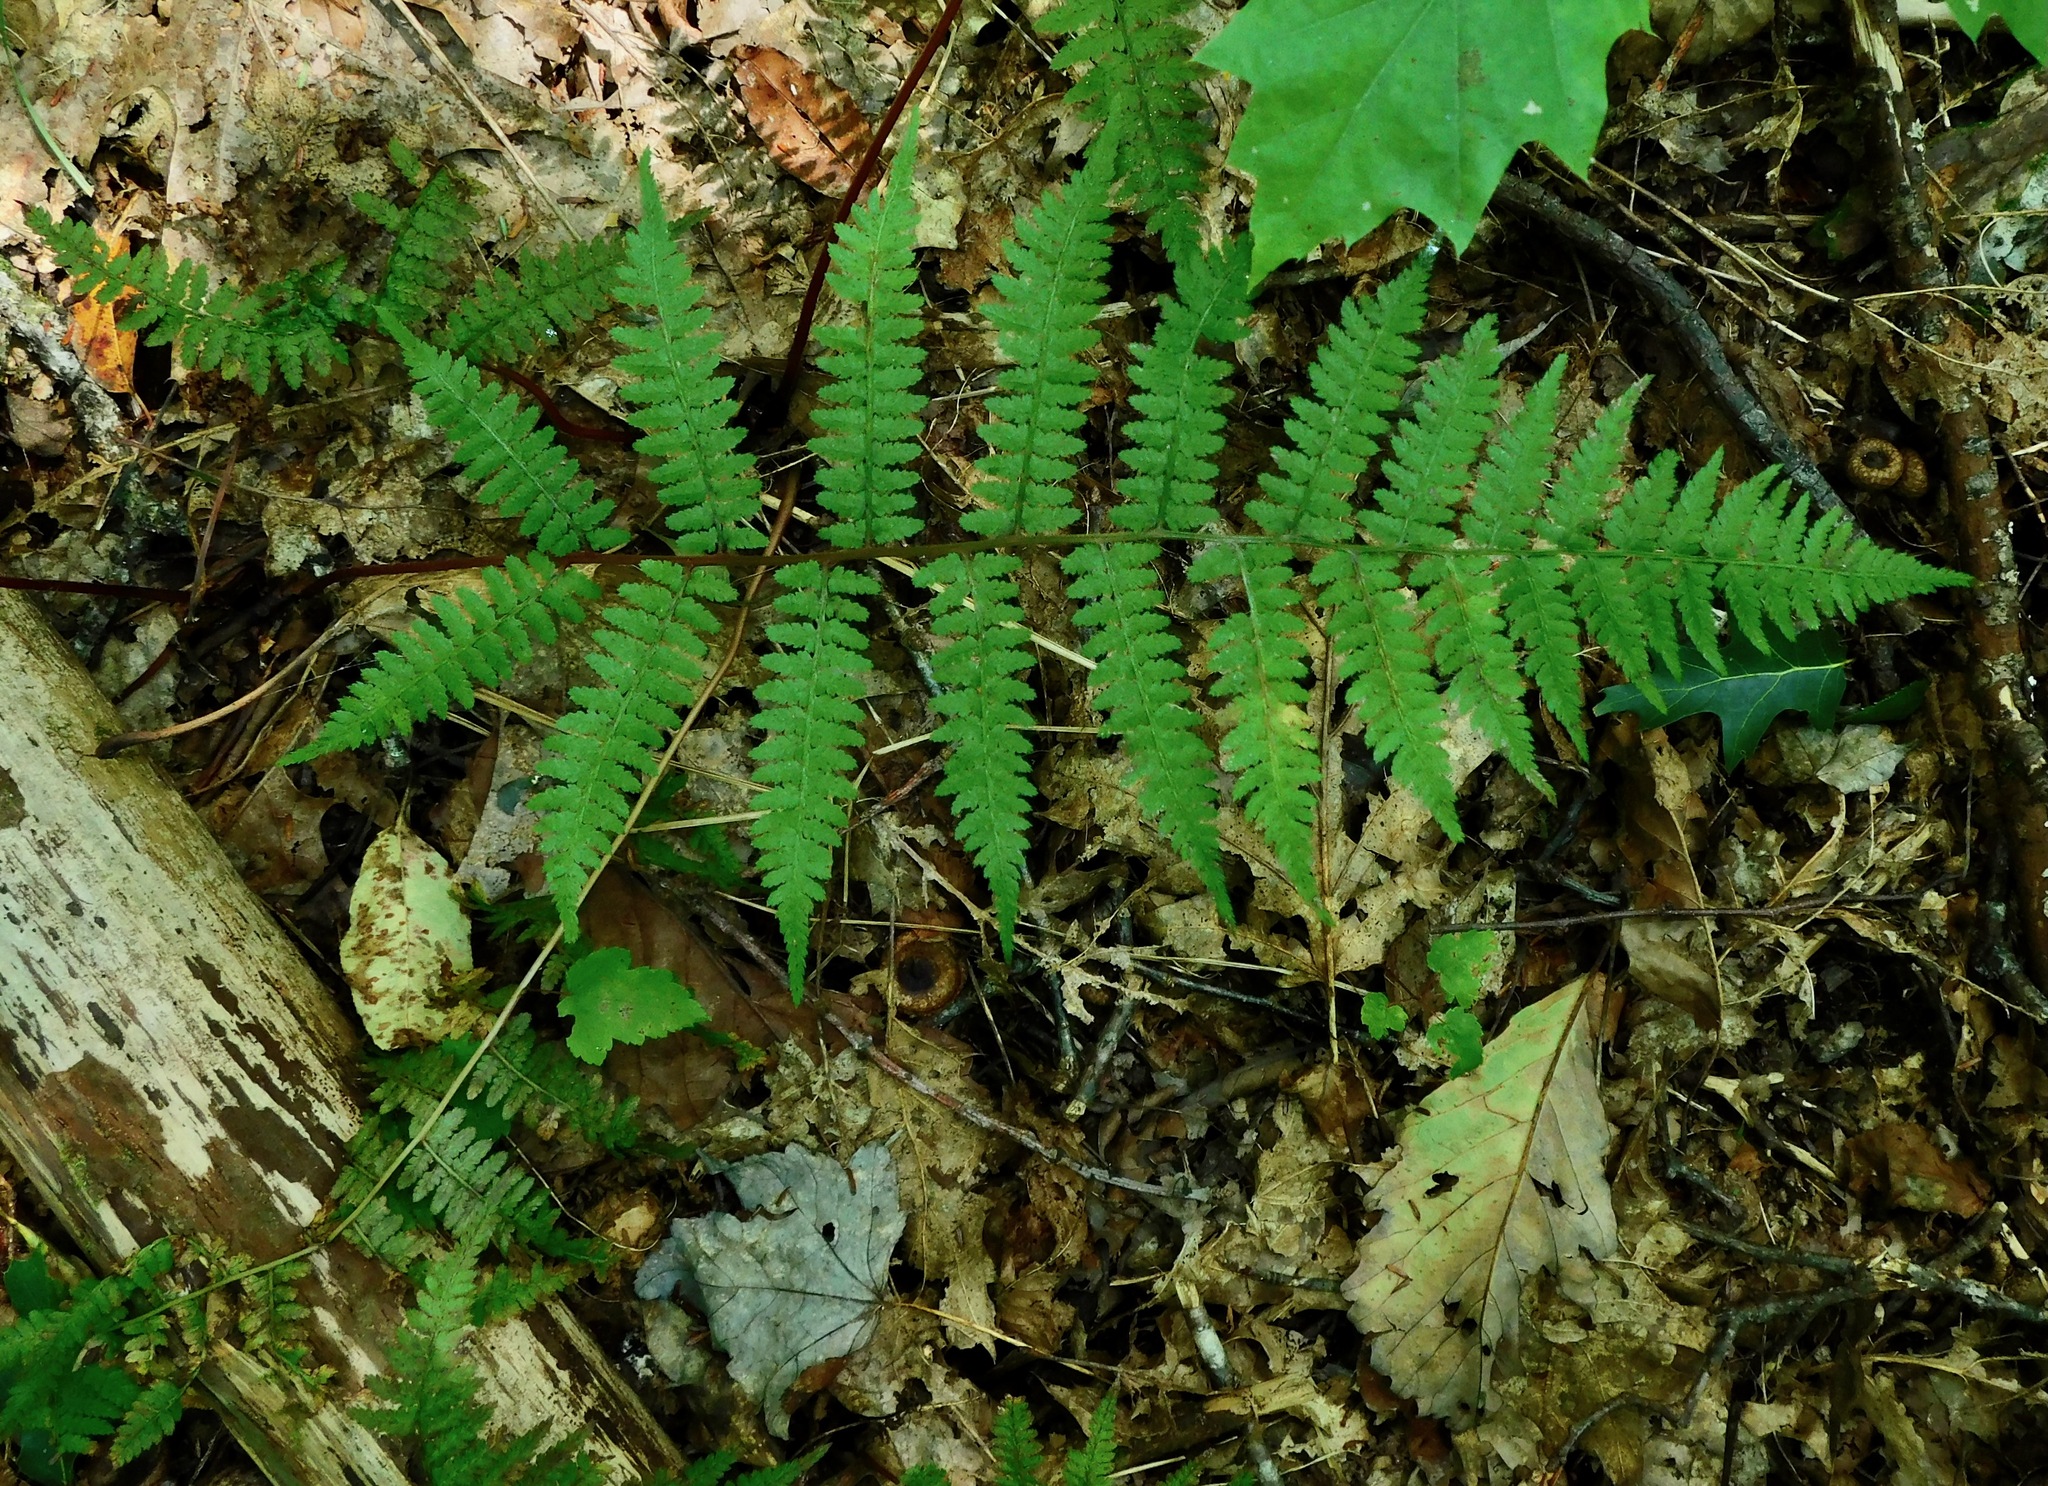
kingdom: Plantae
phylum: Tracheophyta
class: Polypodiopsida
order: Polypodiales
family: Athyriaceae
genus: Athyrium
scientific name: Athyrium asplenioides
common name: Southern lady fern
